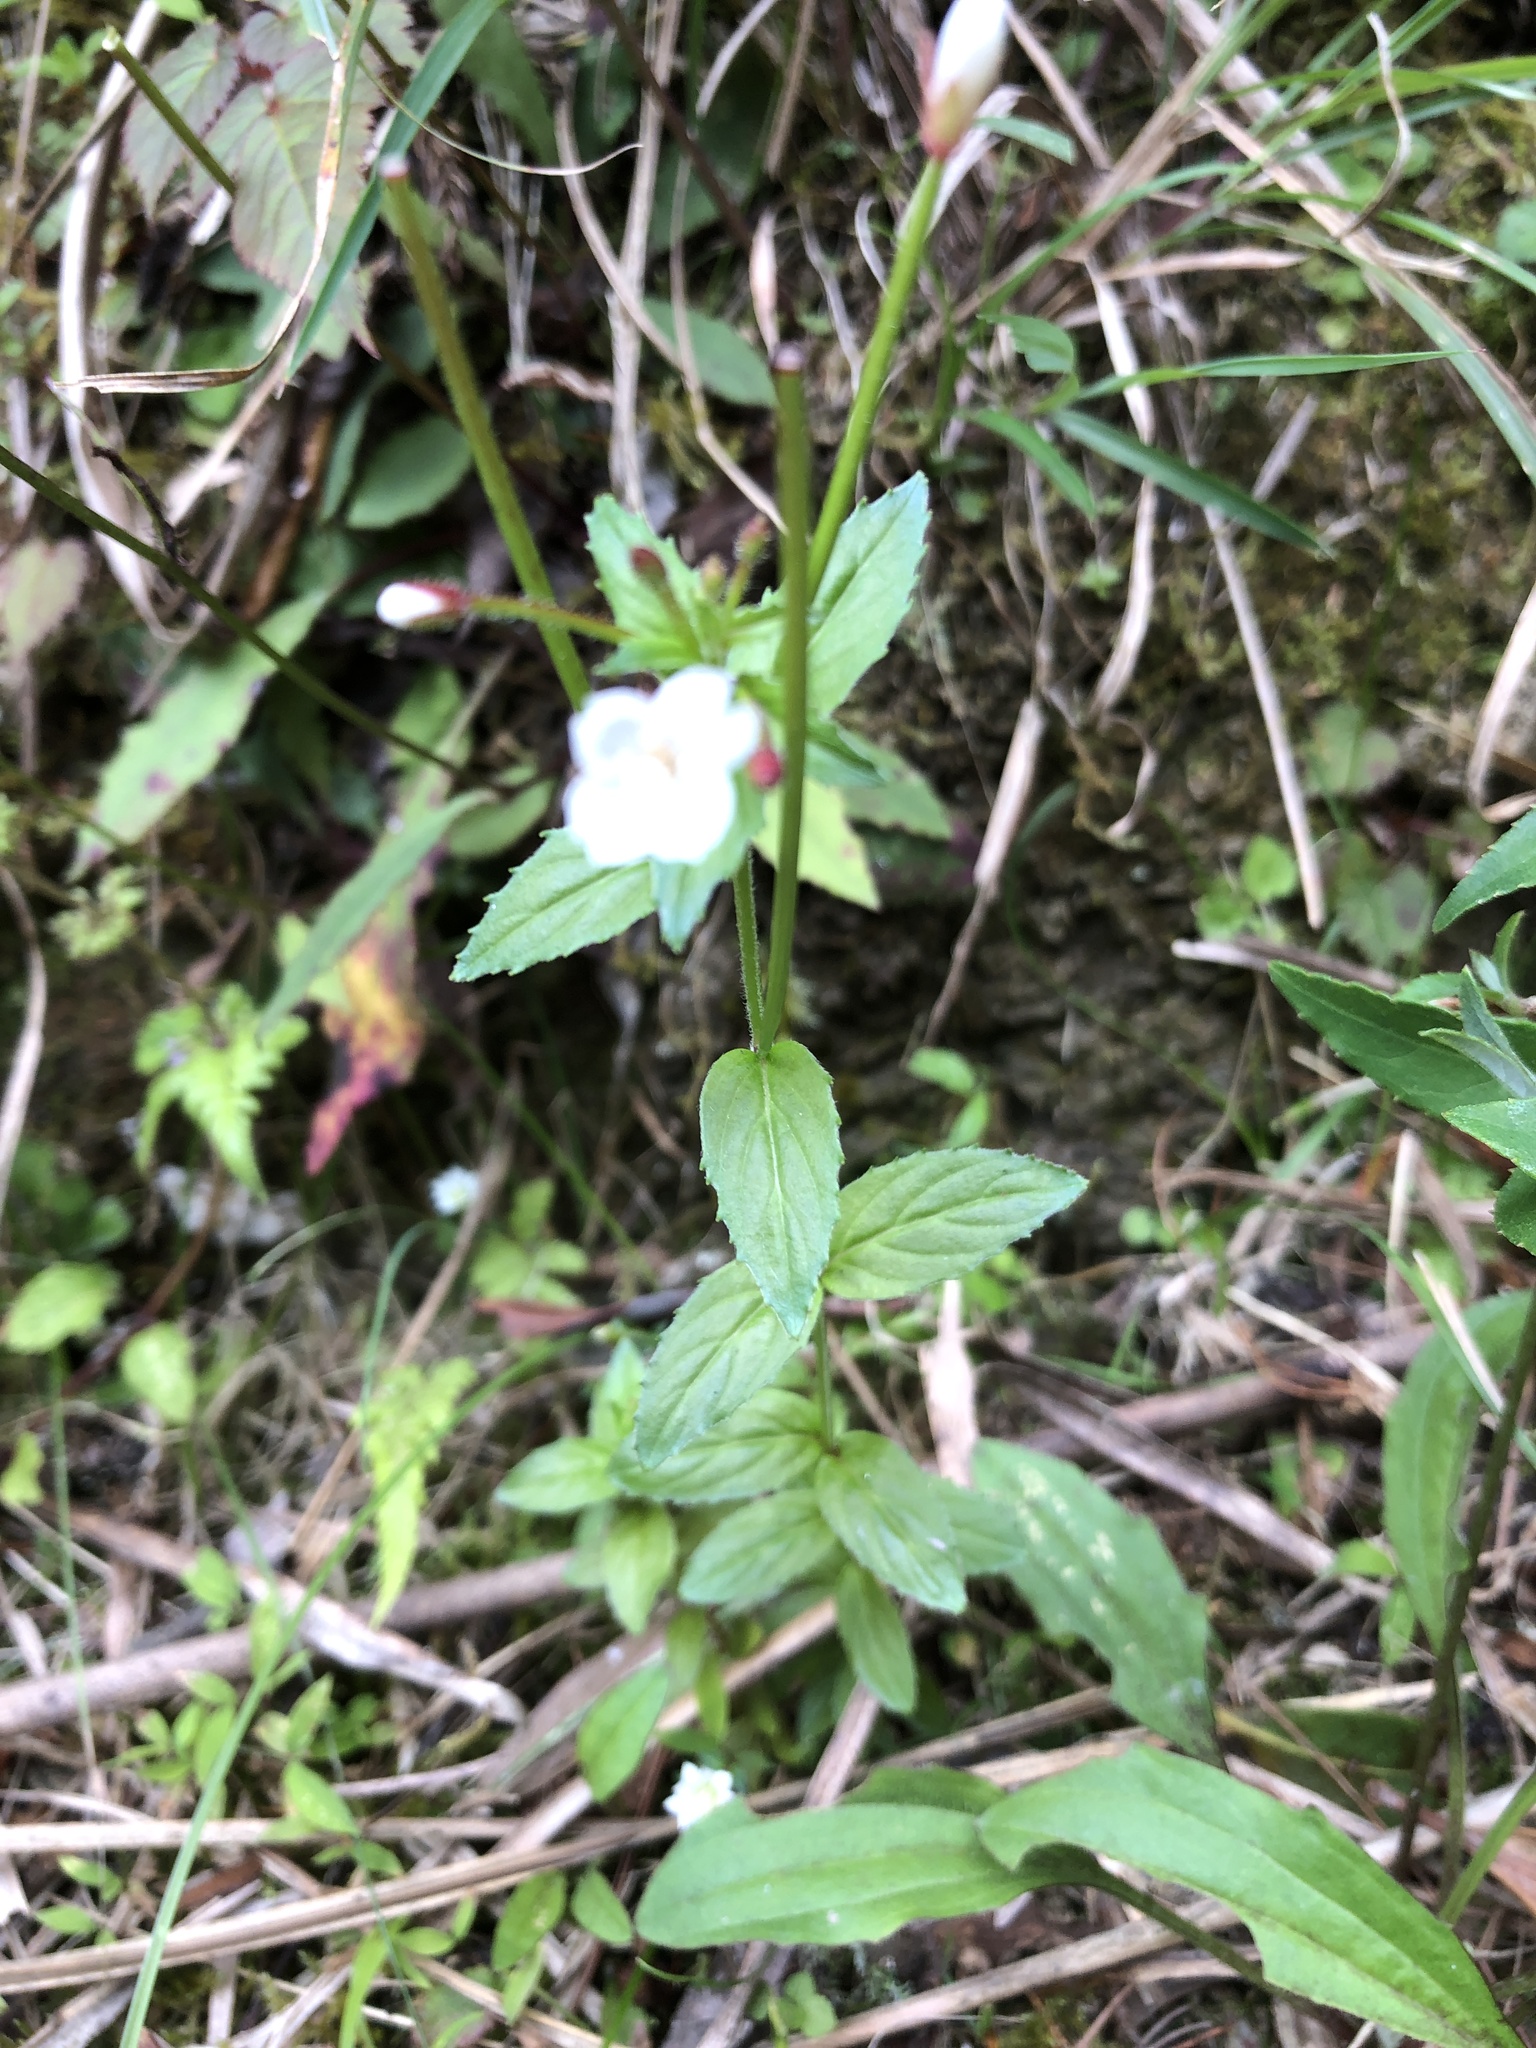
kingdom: Plantae
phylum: Tracheophyta
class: Magnoliopsida
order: Myrtales
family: Onagraceae
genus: Epilobium
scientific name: Epilobium amurense
